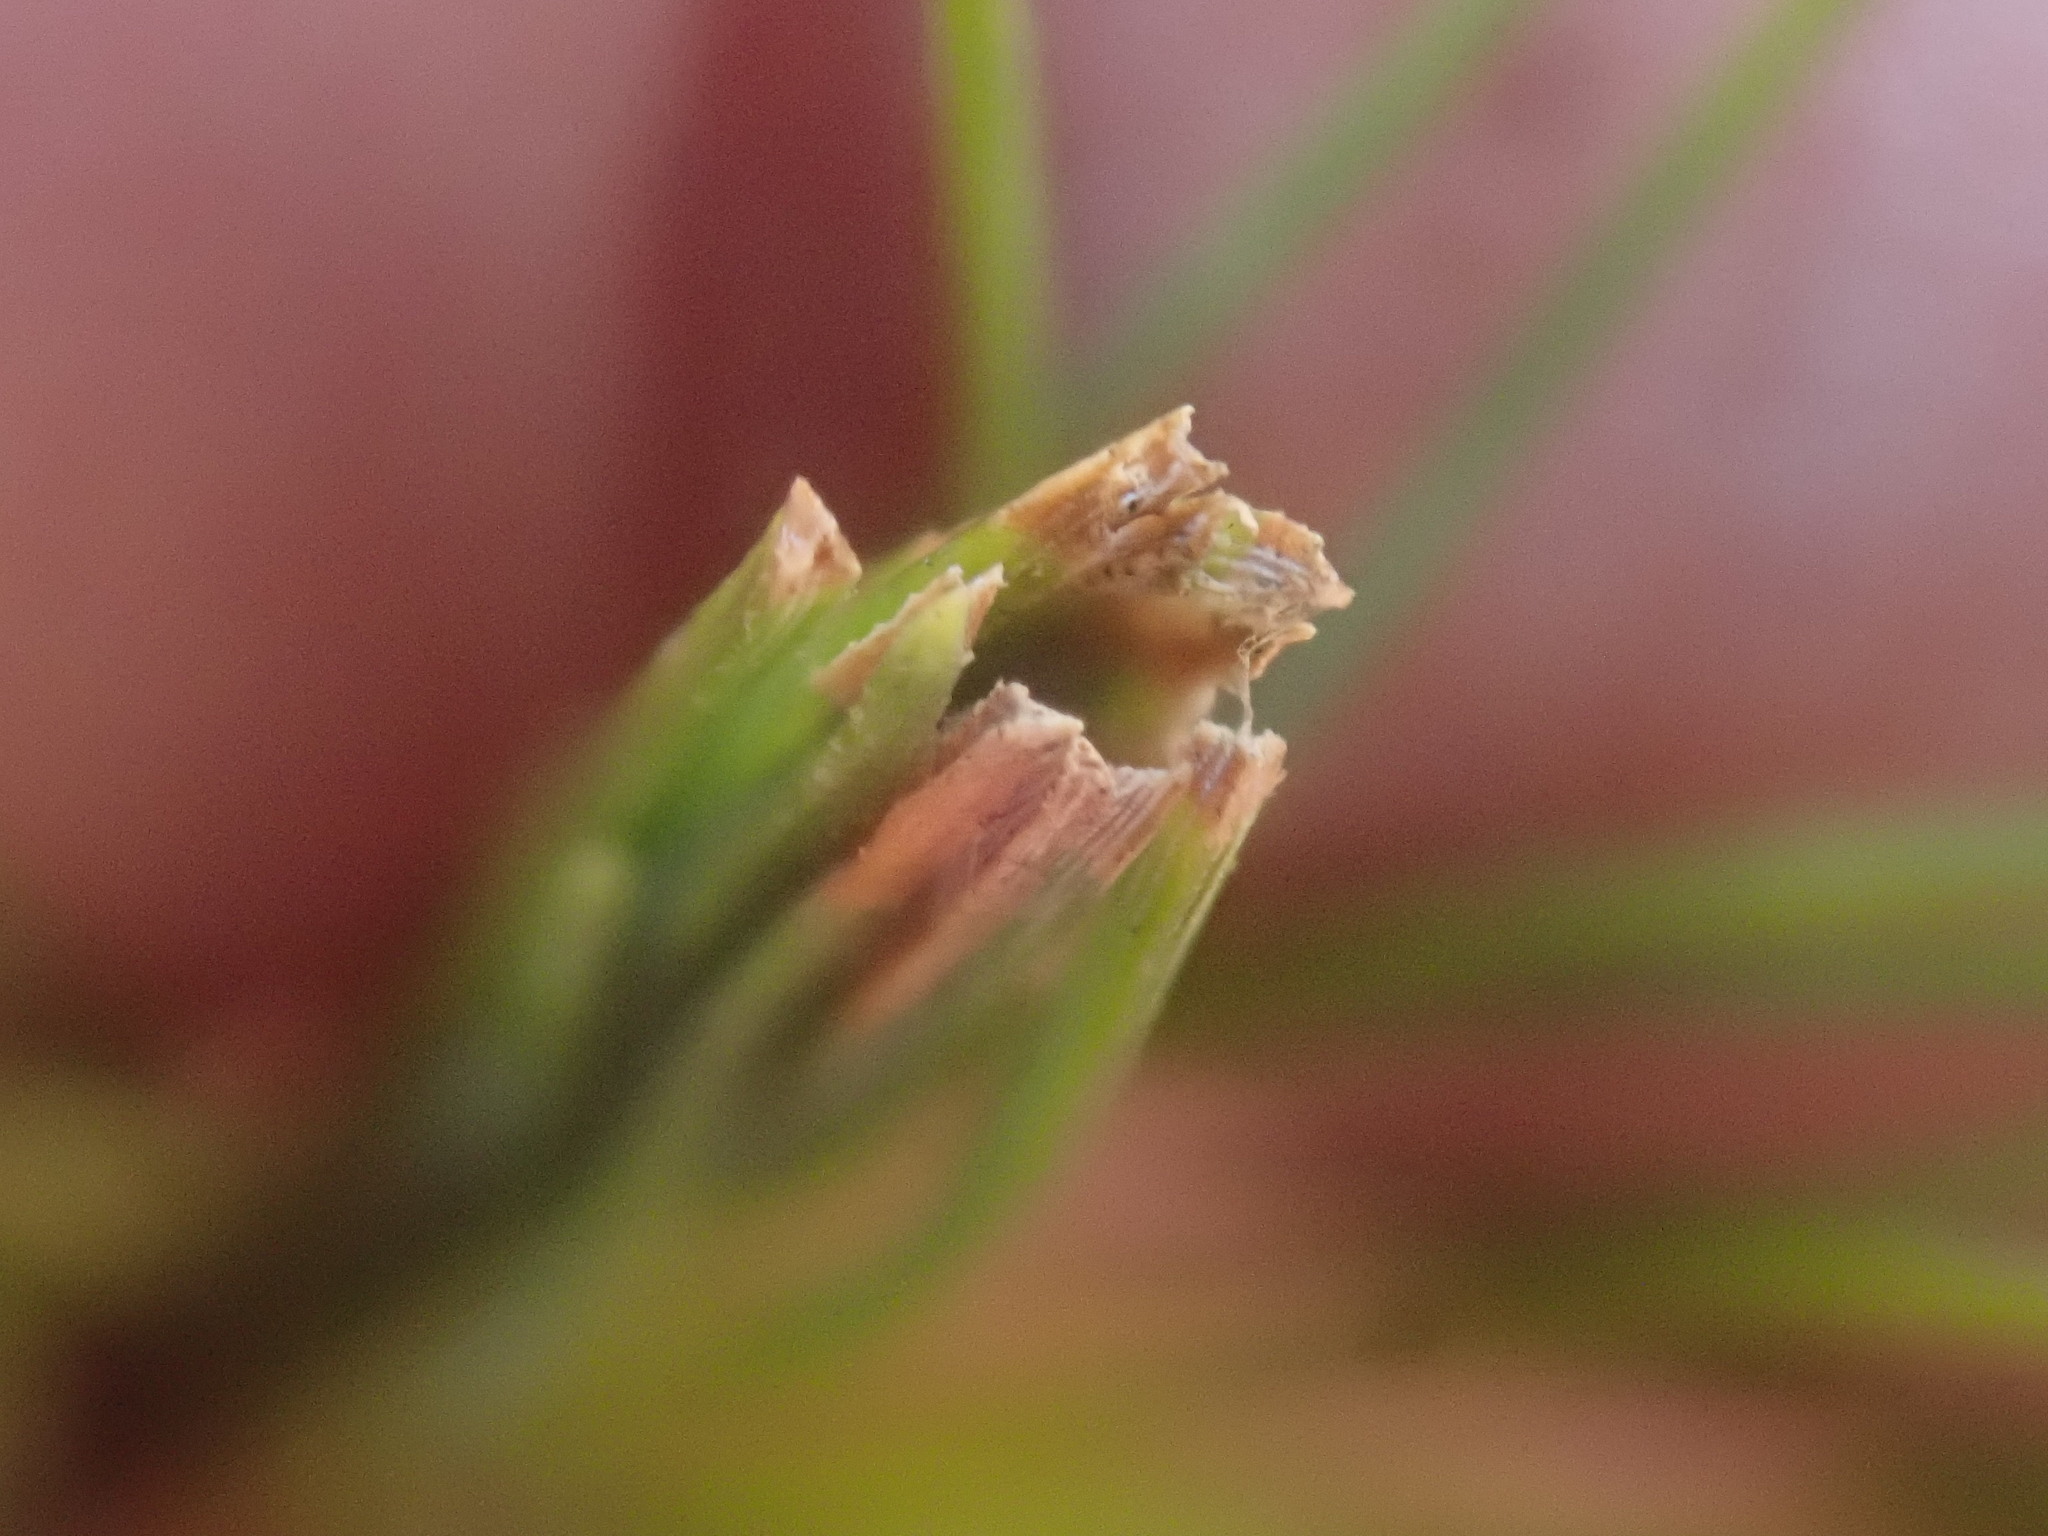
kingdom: Animalia
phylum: Arthropoda
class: Insecta
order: Lepidoptera
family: Tortricidae
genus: Argyrotaenia
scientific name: Argyrotaenia pinatubana
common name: Pine tube moth
